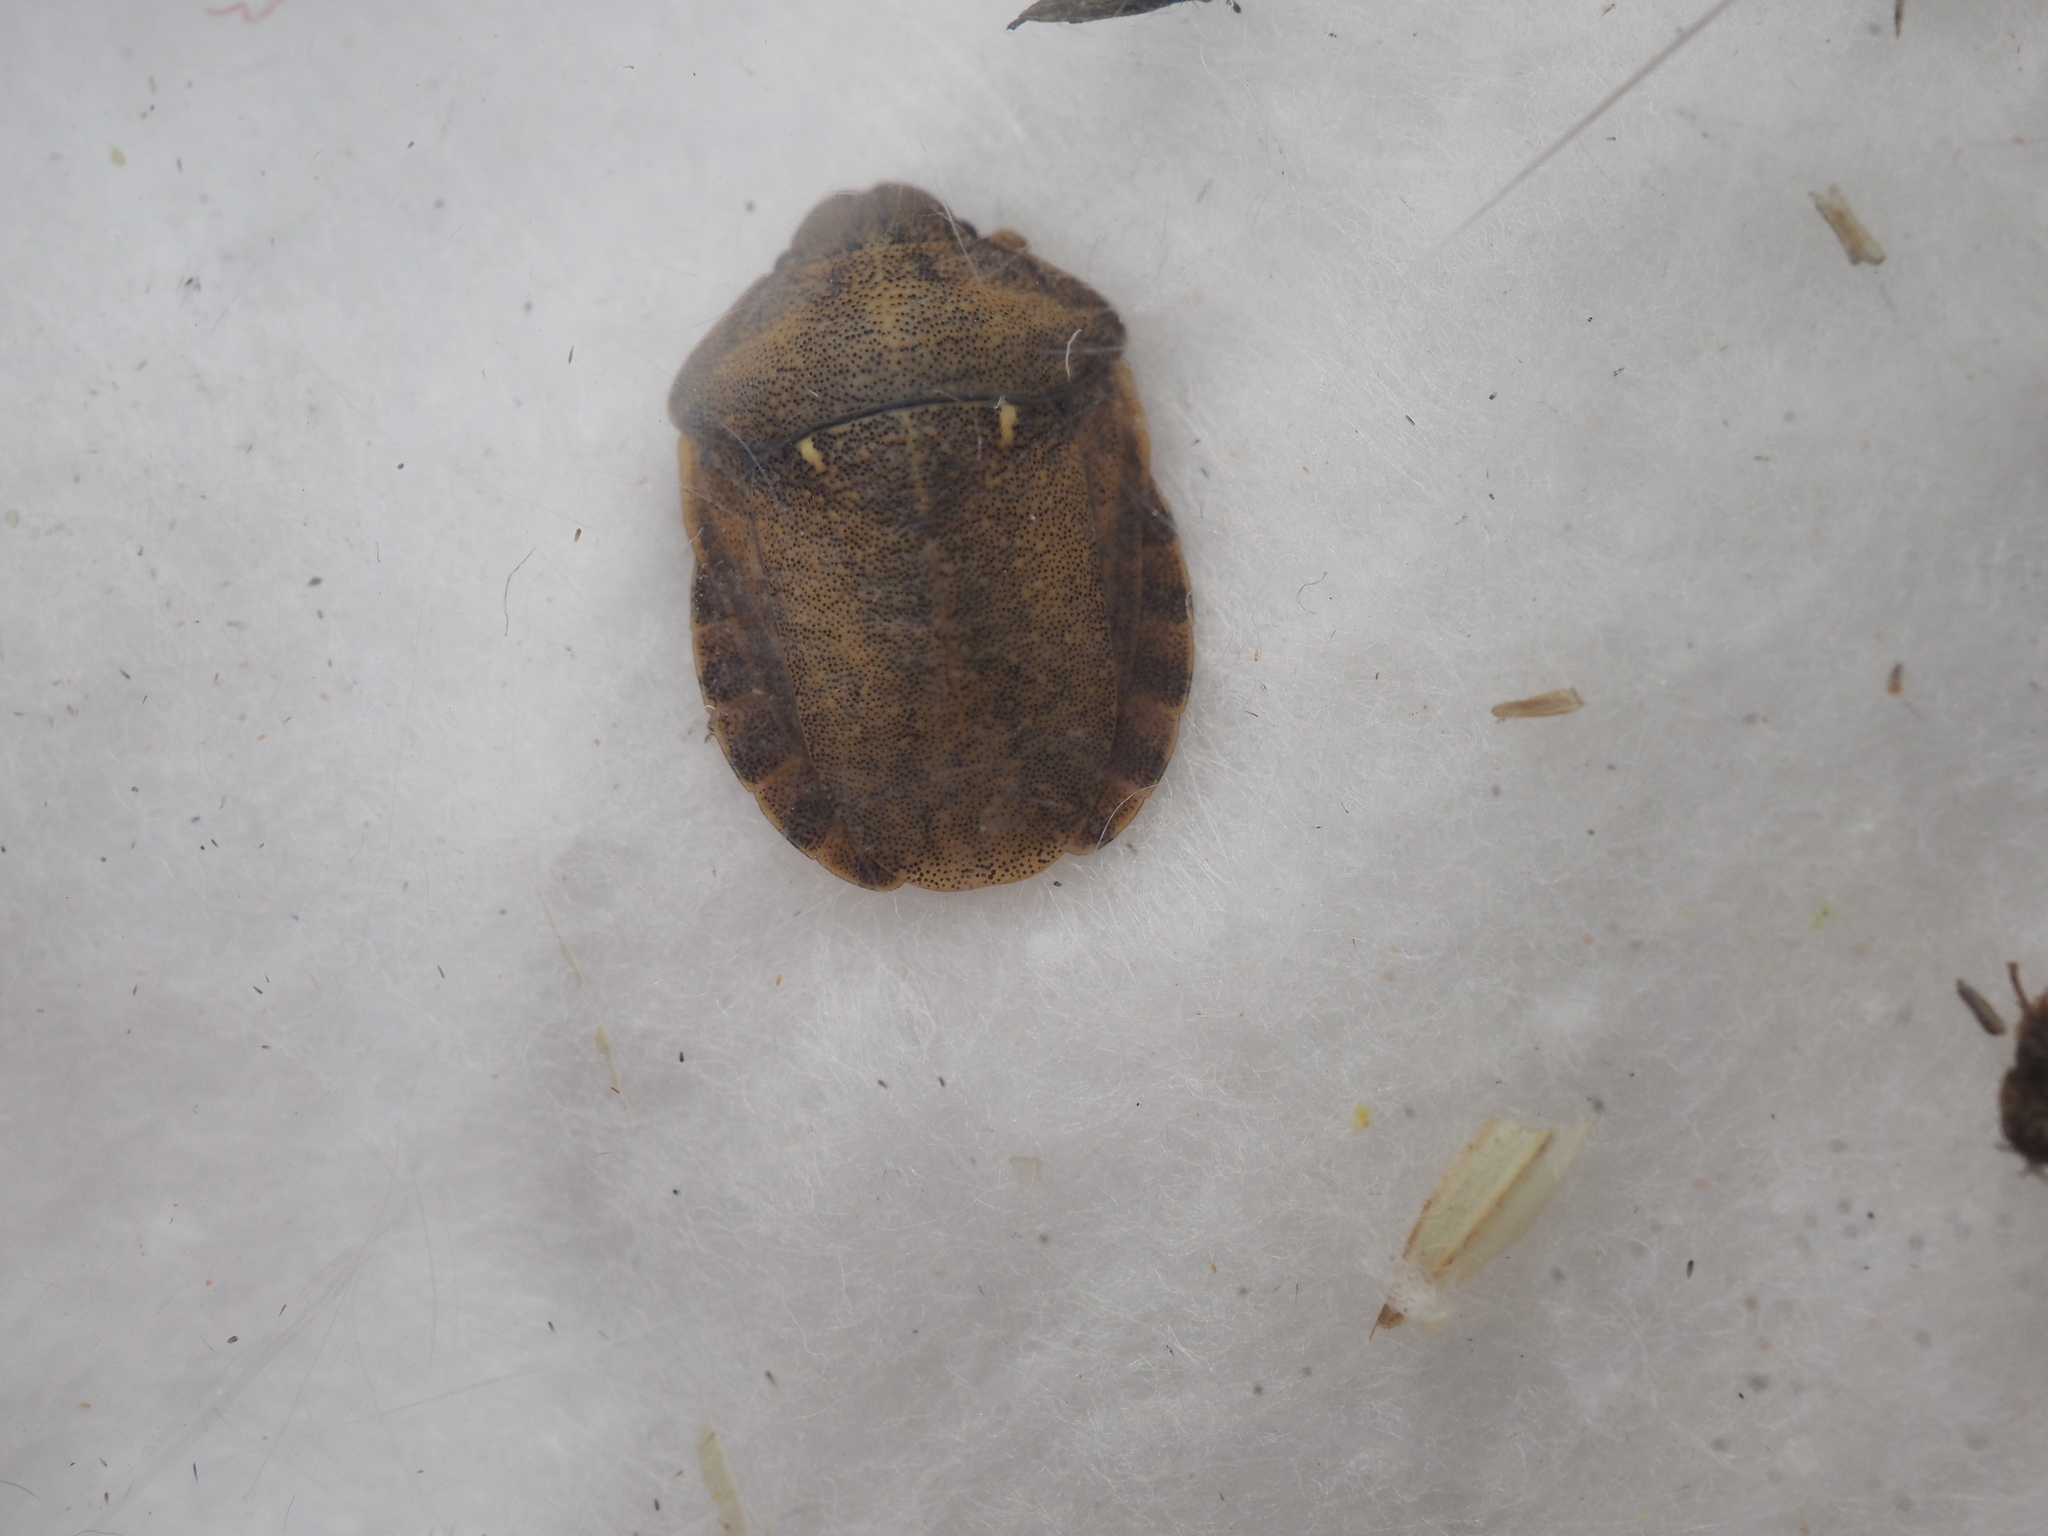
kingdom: Animalia
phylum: Arthropoda
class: Insecta
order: Hemiptera
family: Scutelleridae
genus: Eurygaster
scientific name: Eurygaster testudinaria
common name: Tortoise bug
